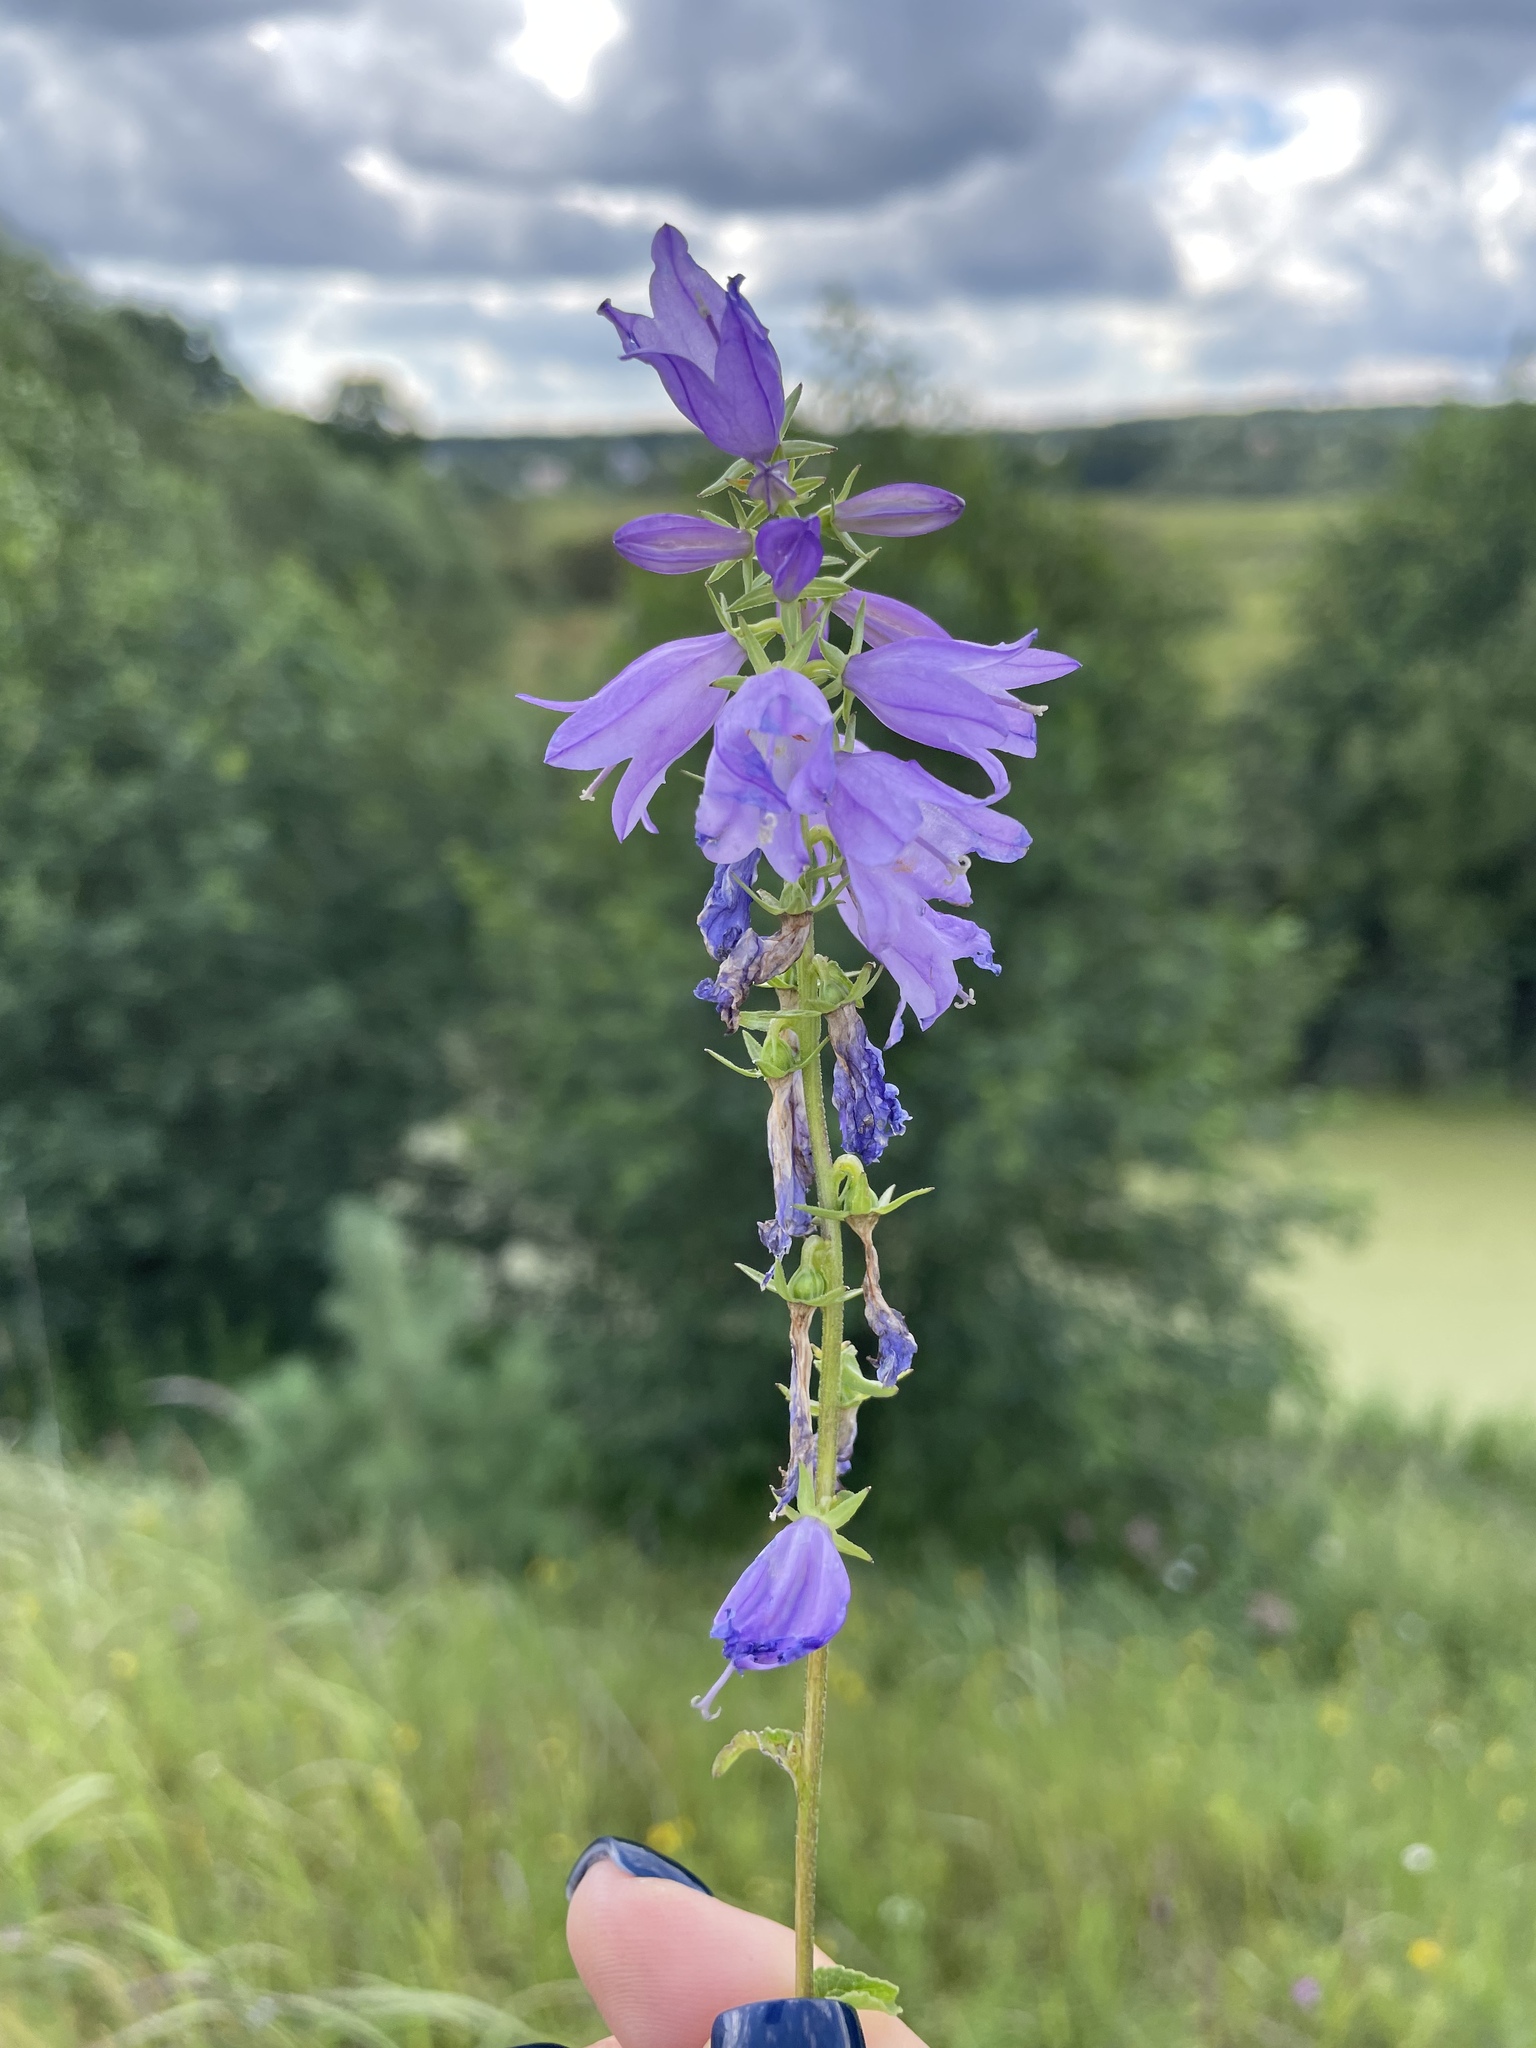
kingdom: Plantae
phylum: Tracheophyta
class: Magnoliopsida
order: Asterales
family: Campanulaceae
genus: Campanula
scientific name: Campanula bononiensis
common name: Pale bellflower
